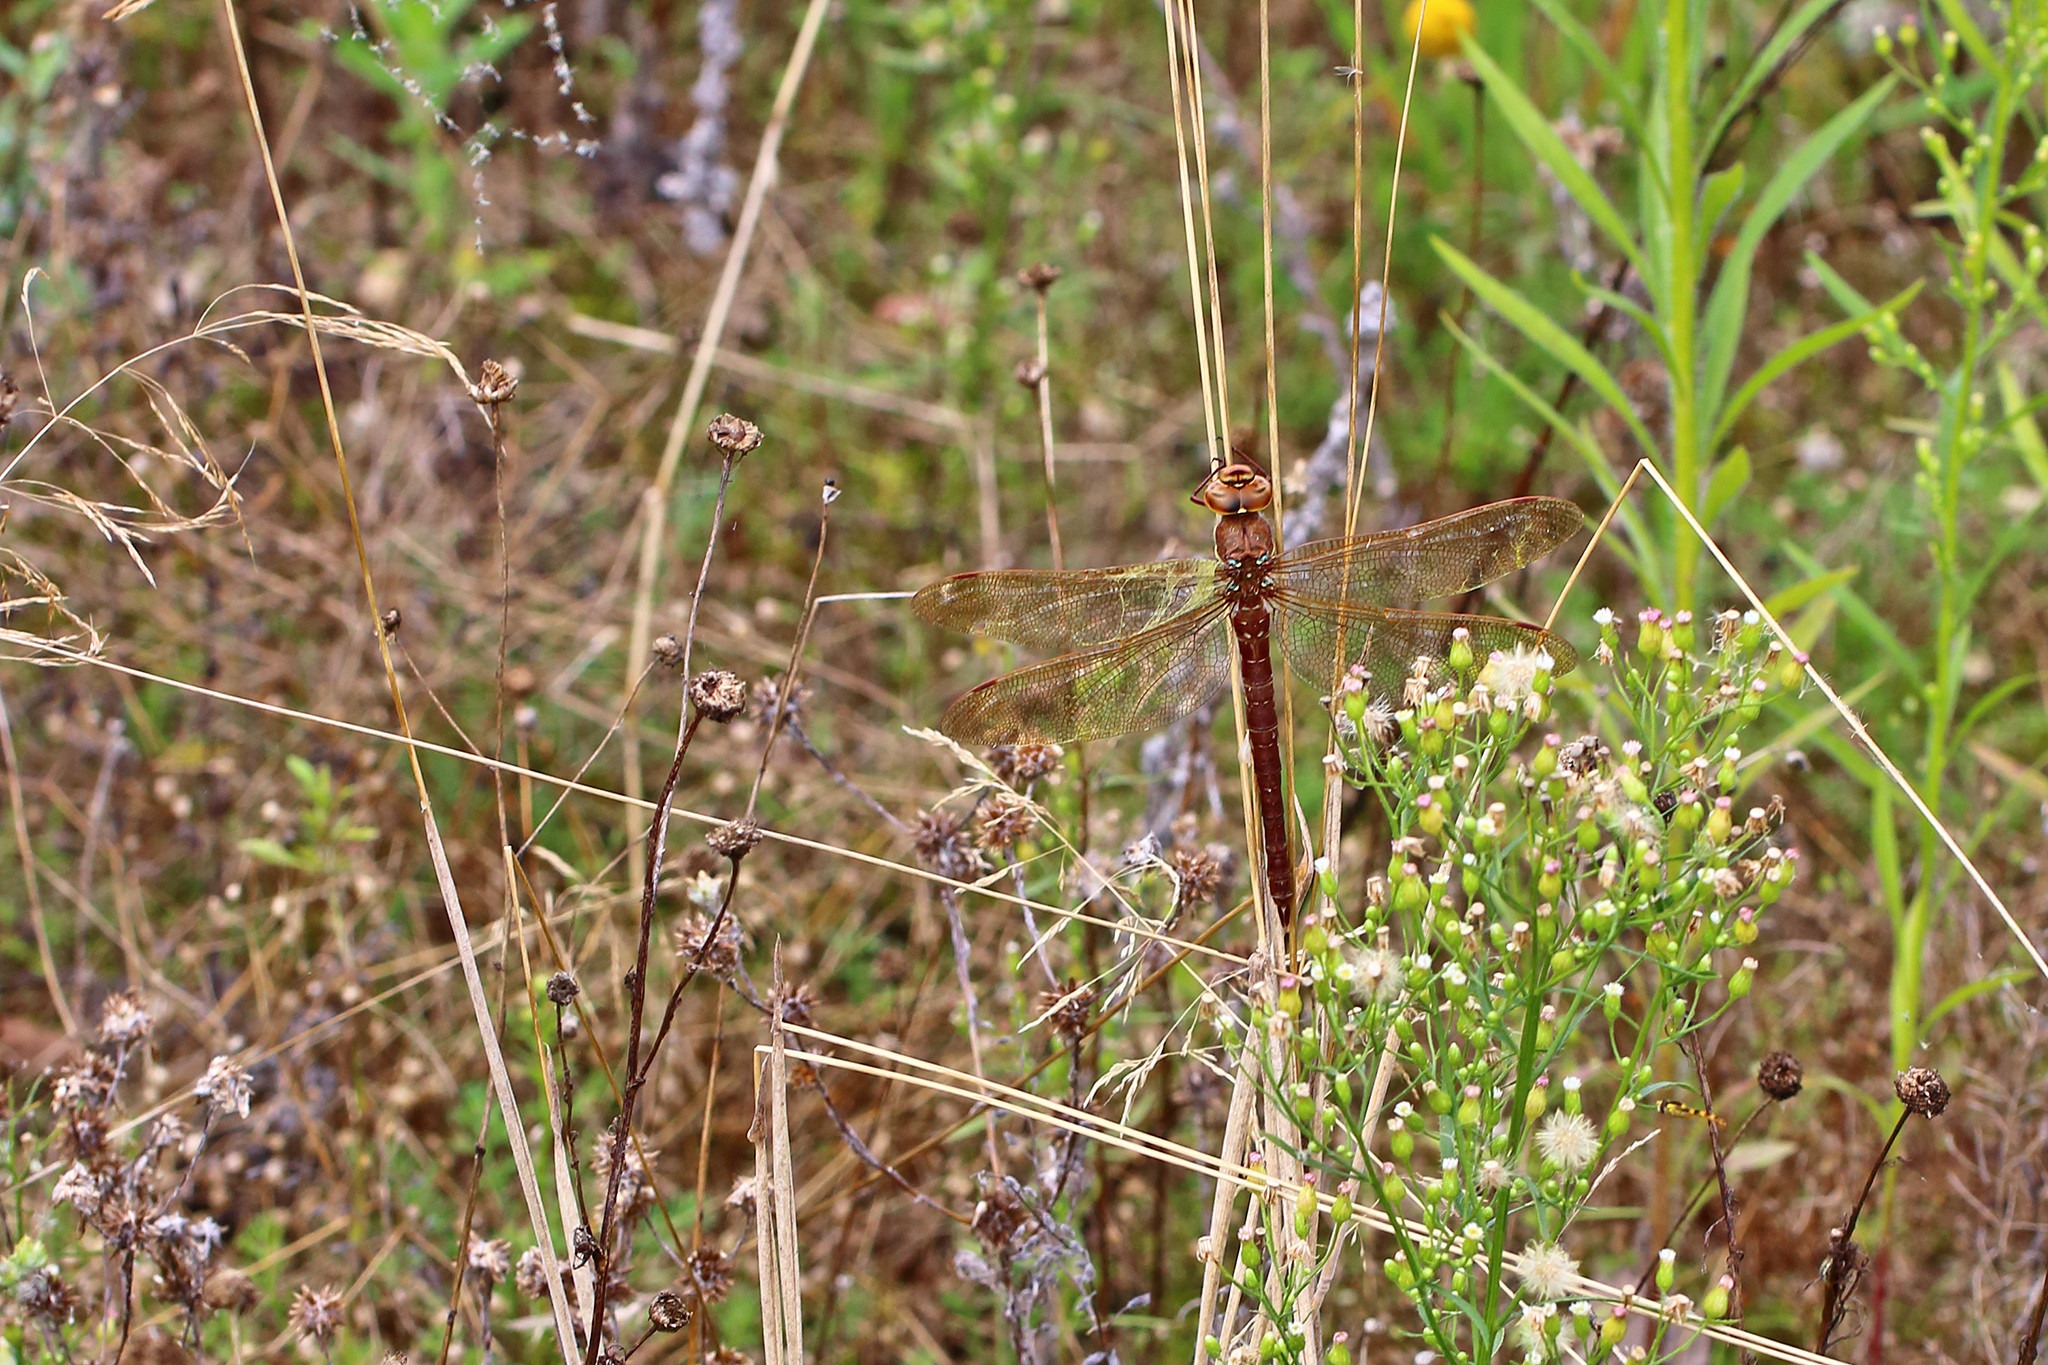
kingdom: Animalia
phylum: Arthropoda
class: Insecta
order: Odonata
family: Aeshnidae
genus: Aeshna
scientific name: Aeshna grandis
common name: Brown hawker
